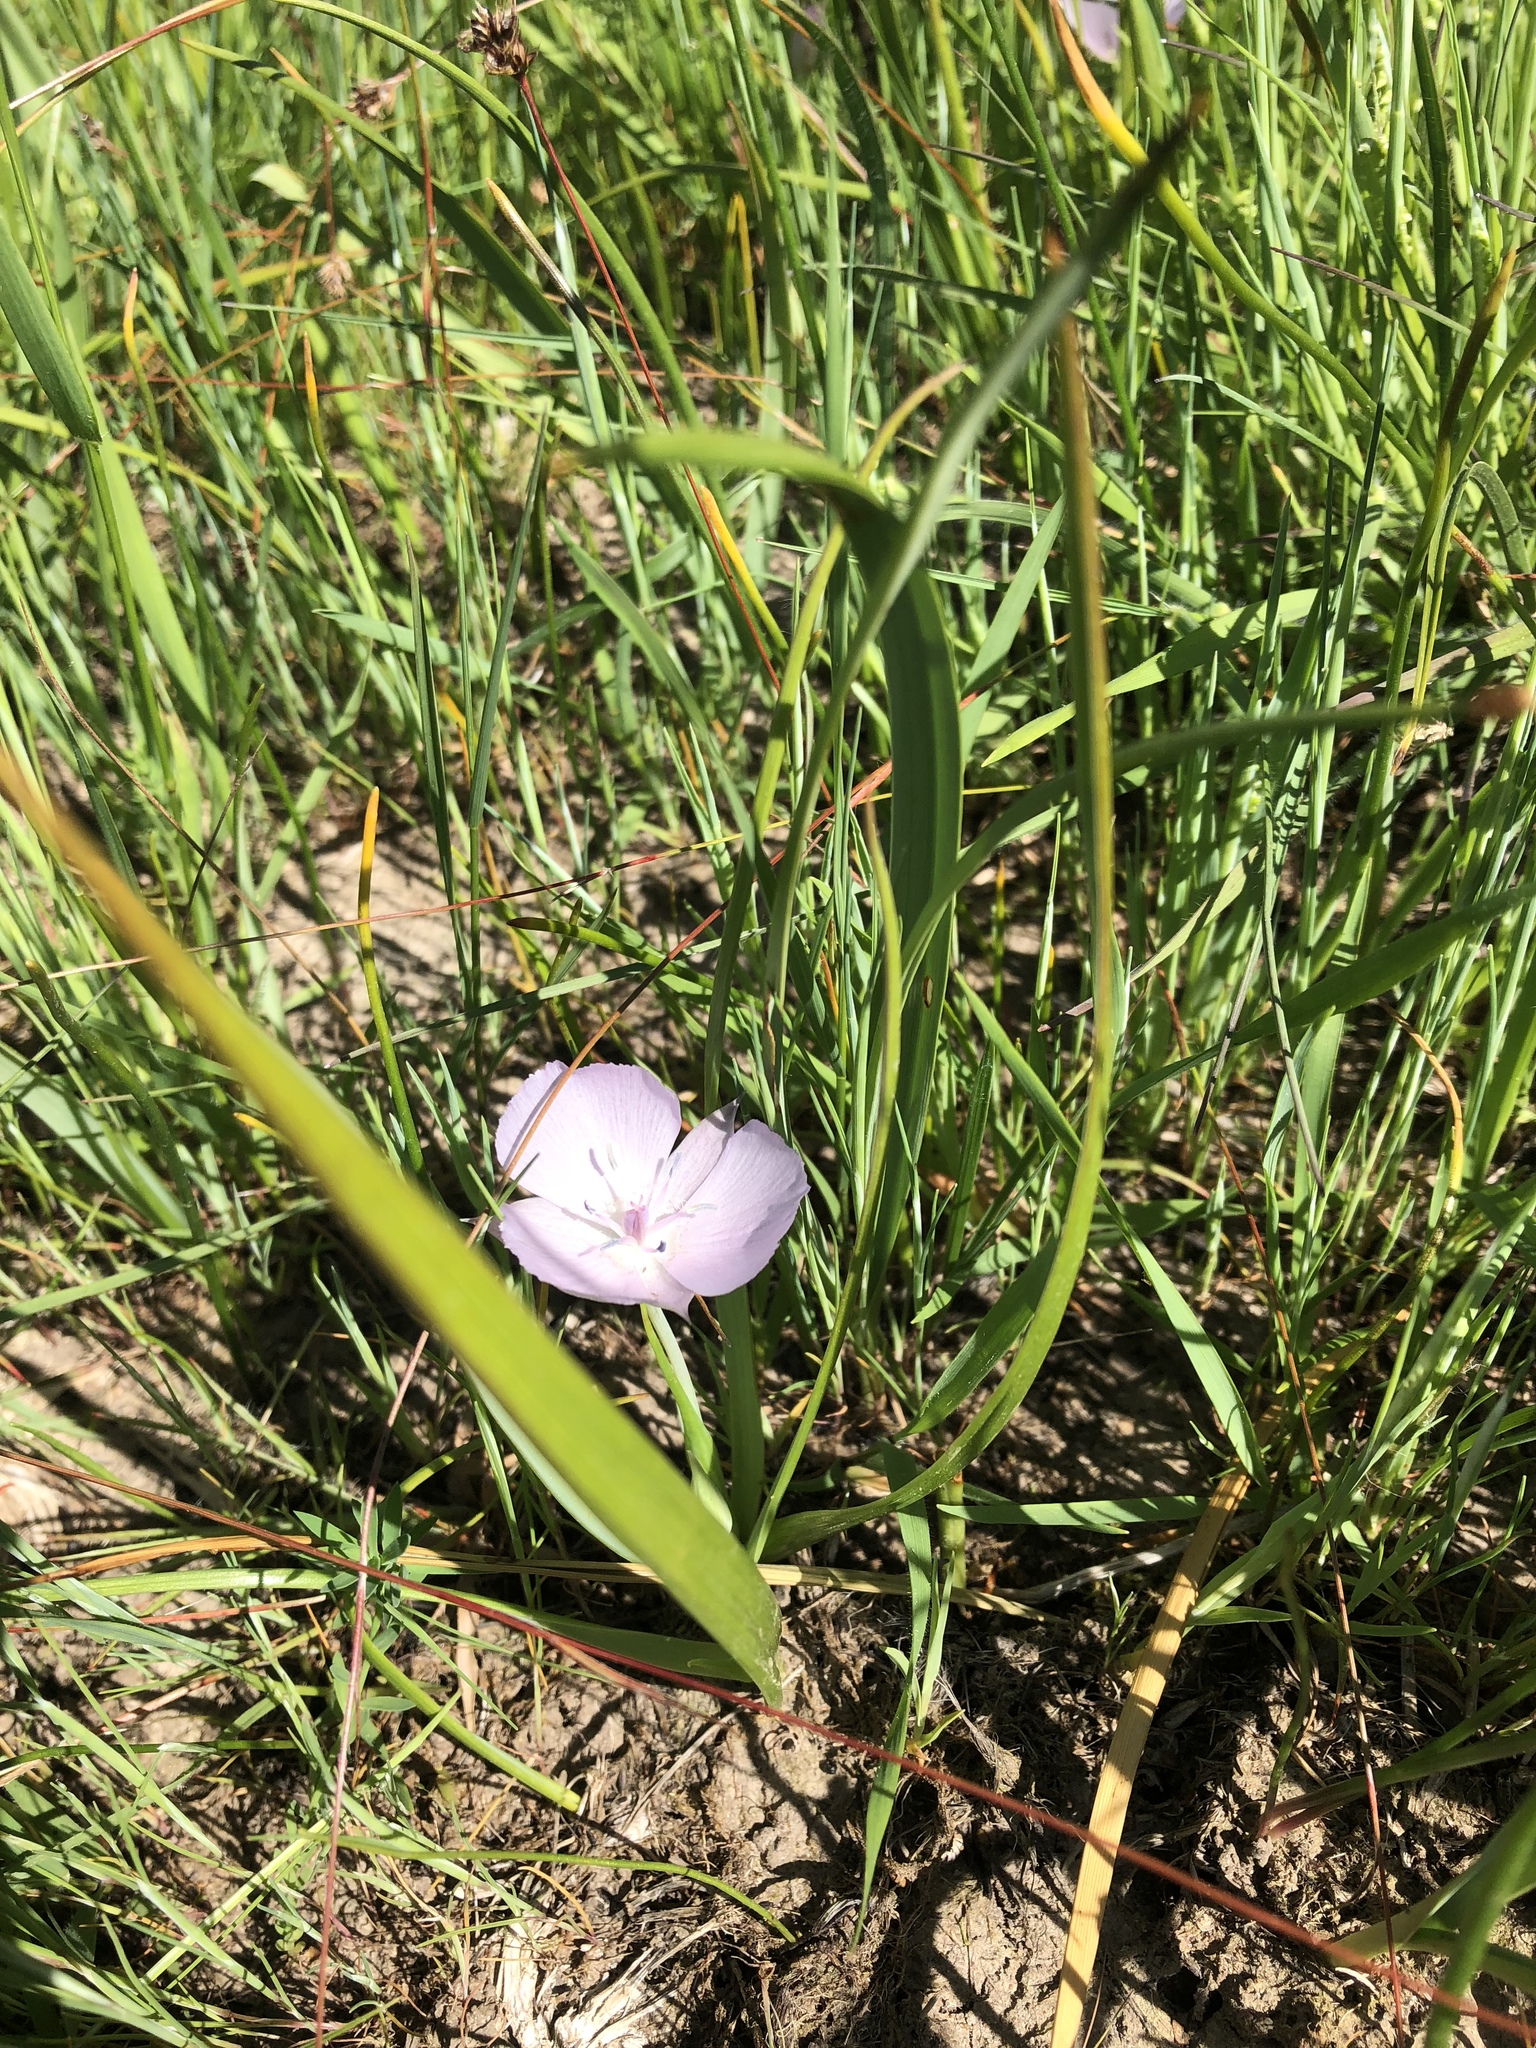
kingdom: Plantae
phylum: Tracheophyta
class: Liliopsida
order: Liliales
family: Liliaceae
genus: Calochortus
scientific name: Calochortus uniflorus
